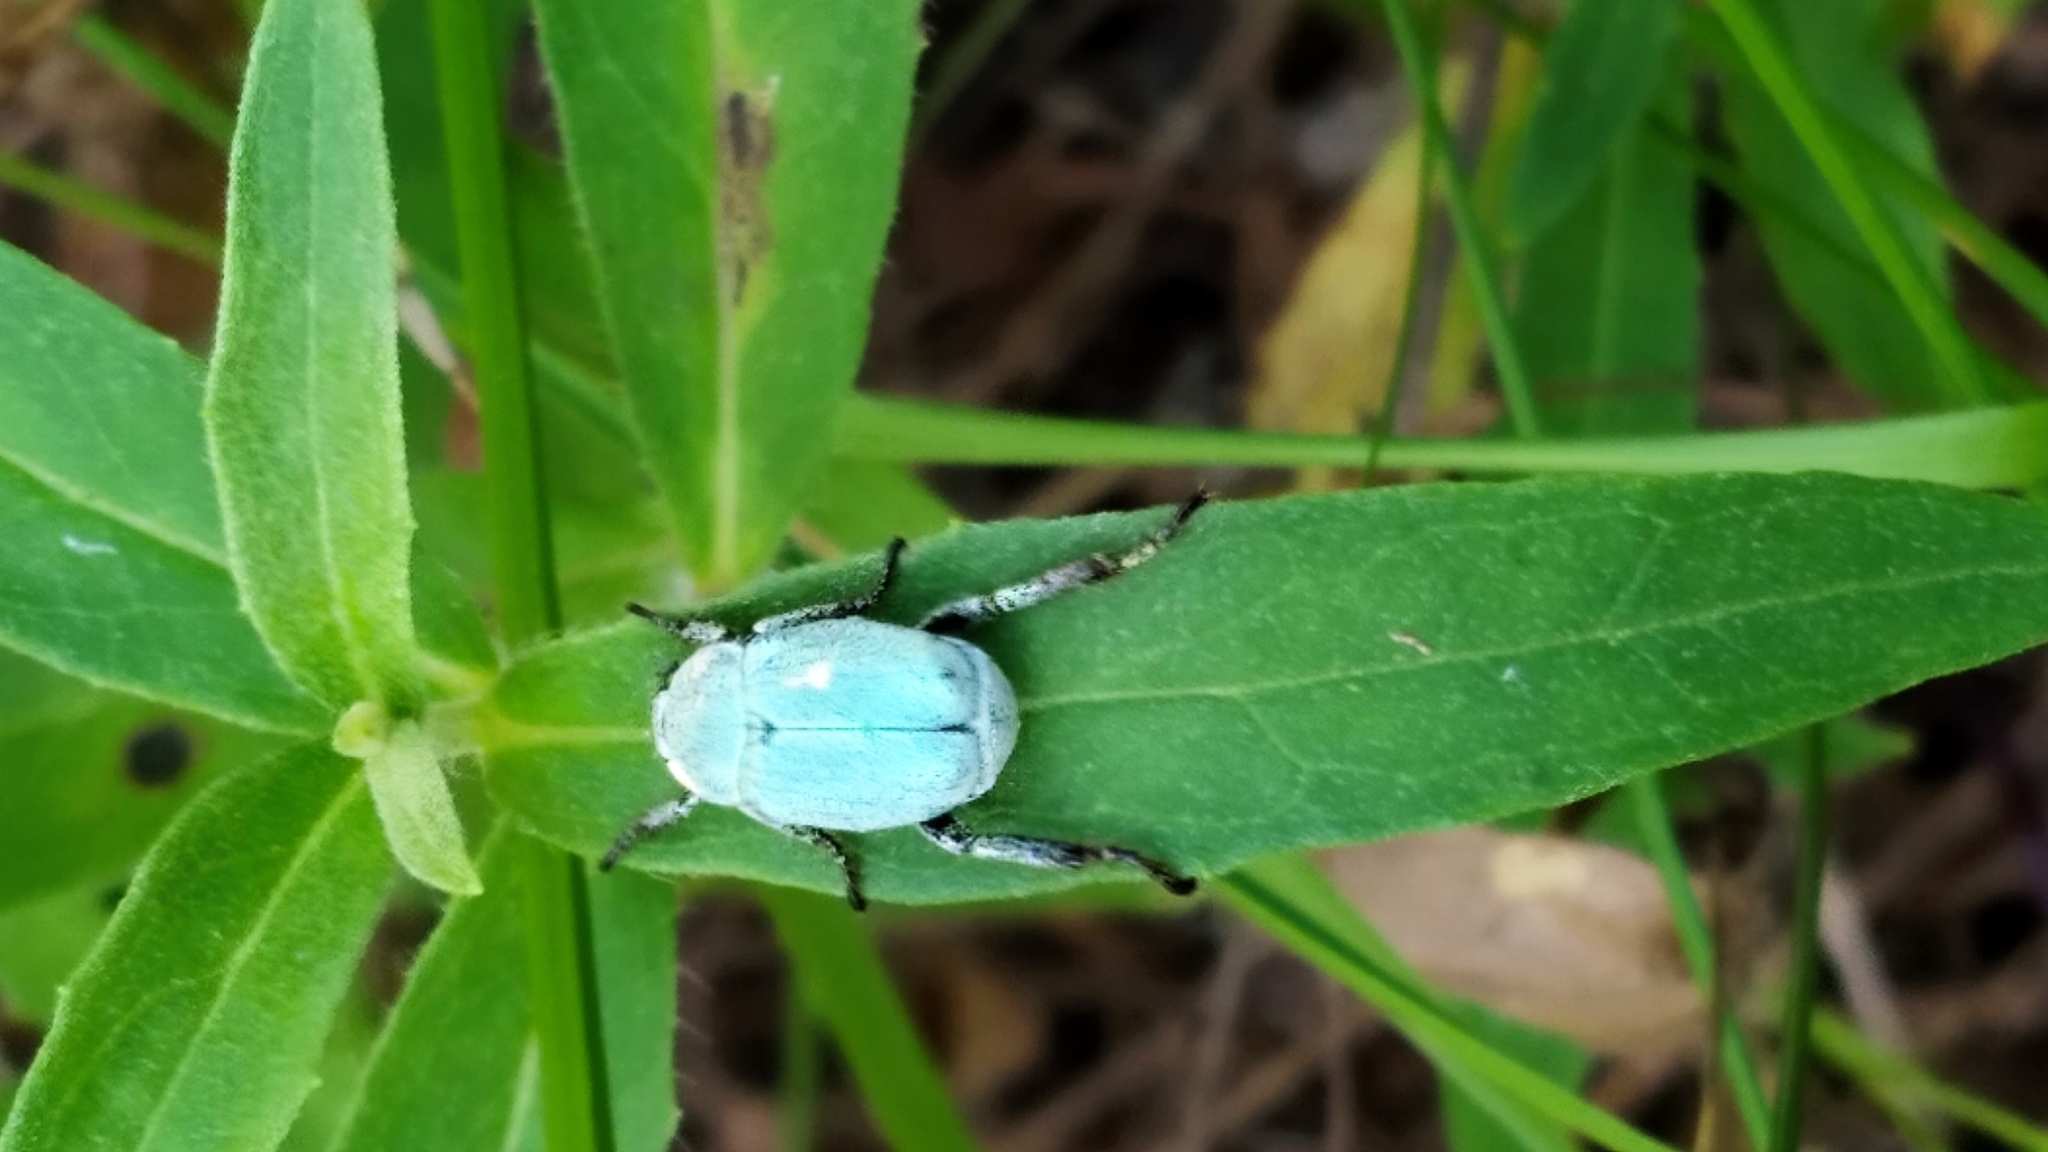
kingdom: Animalia
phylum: Arthropoda
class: Insecta
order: Coleoptera
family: Scarabaeidae
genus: Hoplia
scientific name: Hoplia parvula
